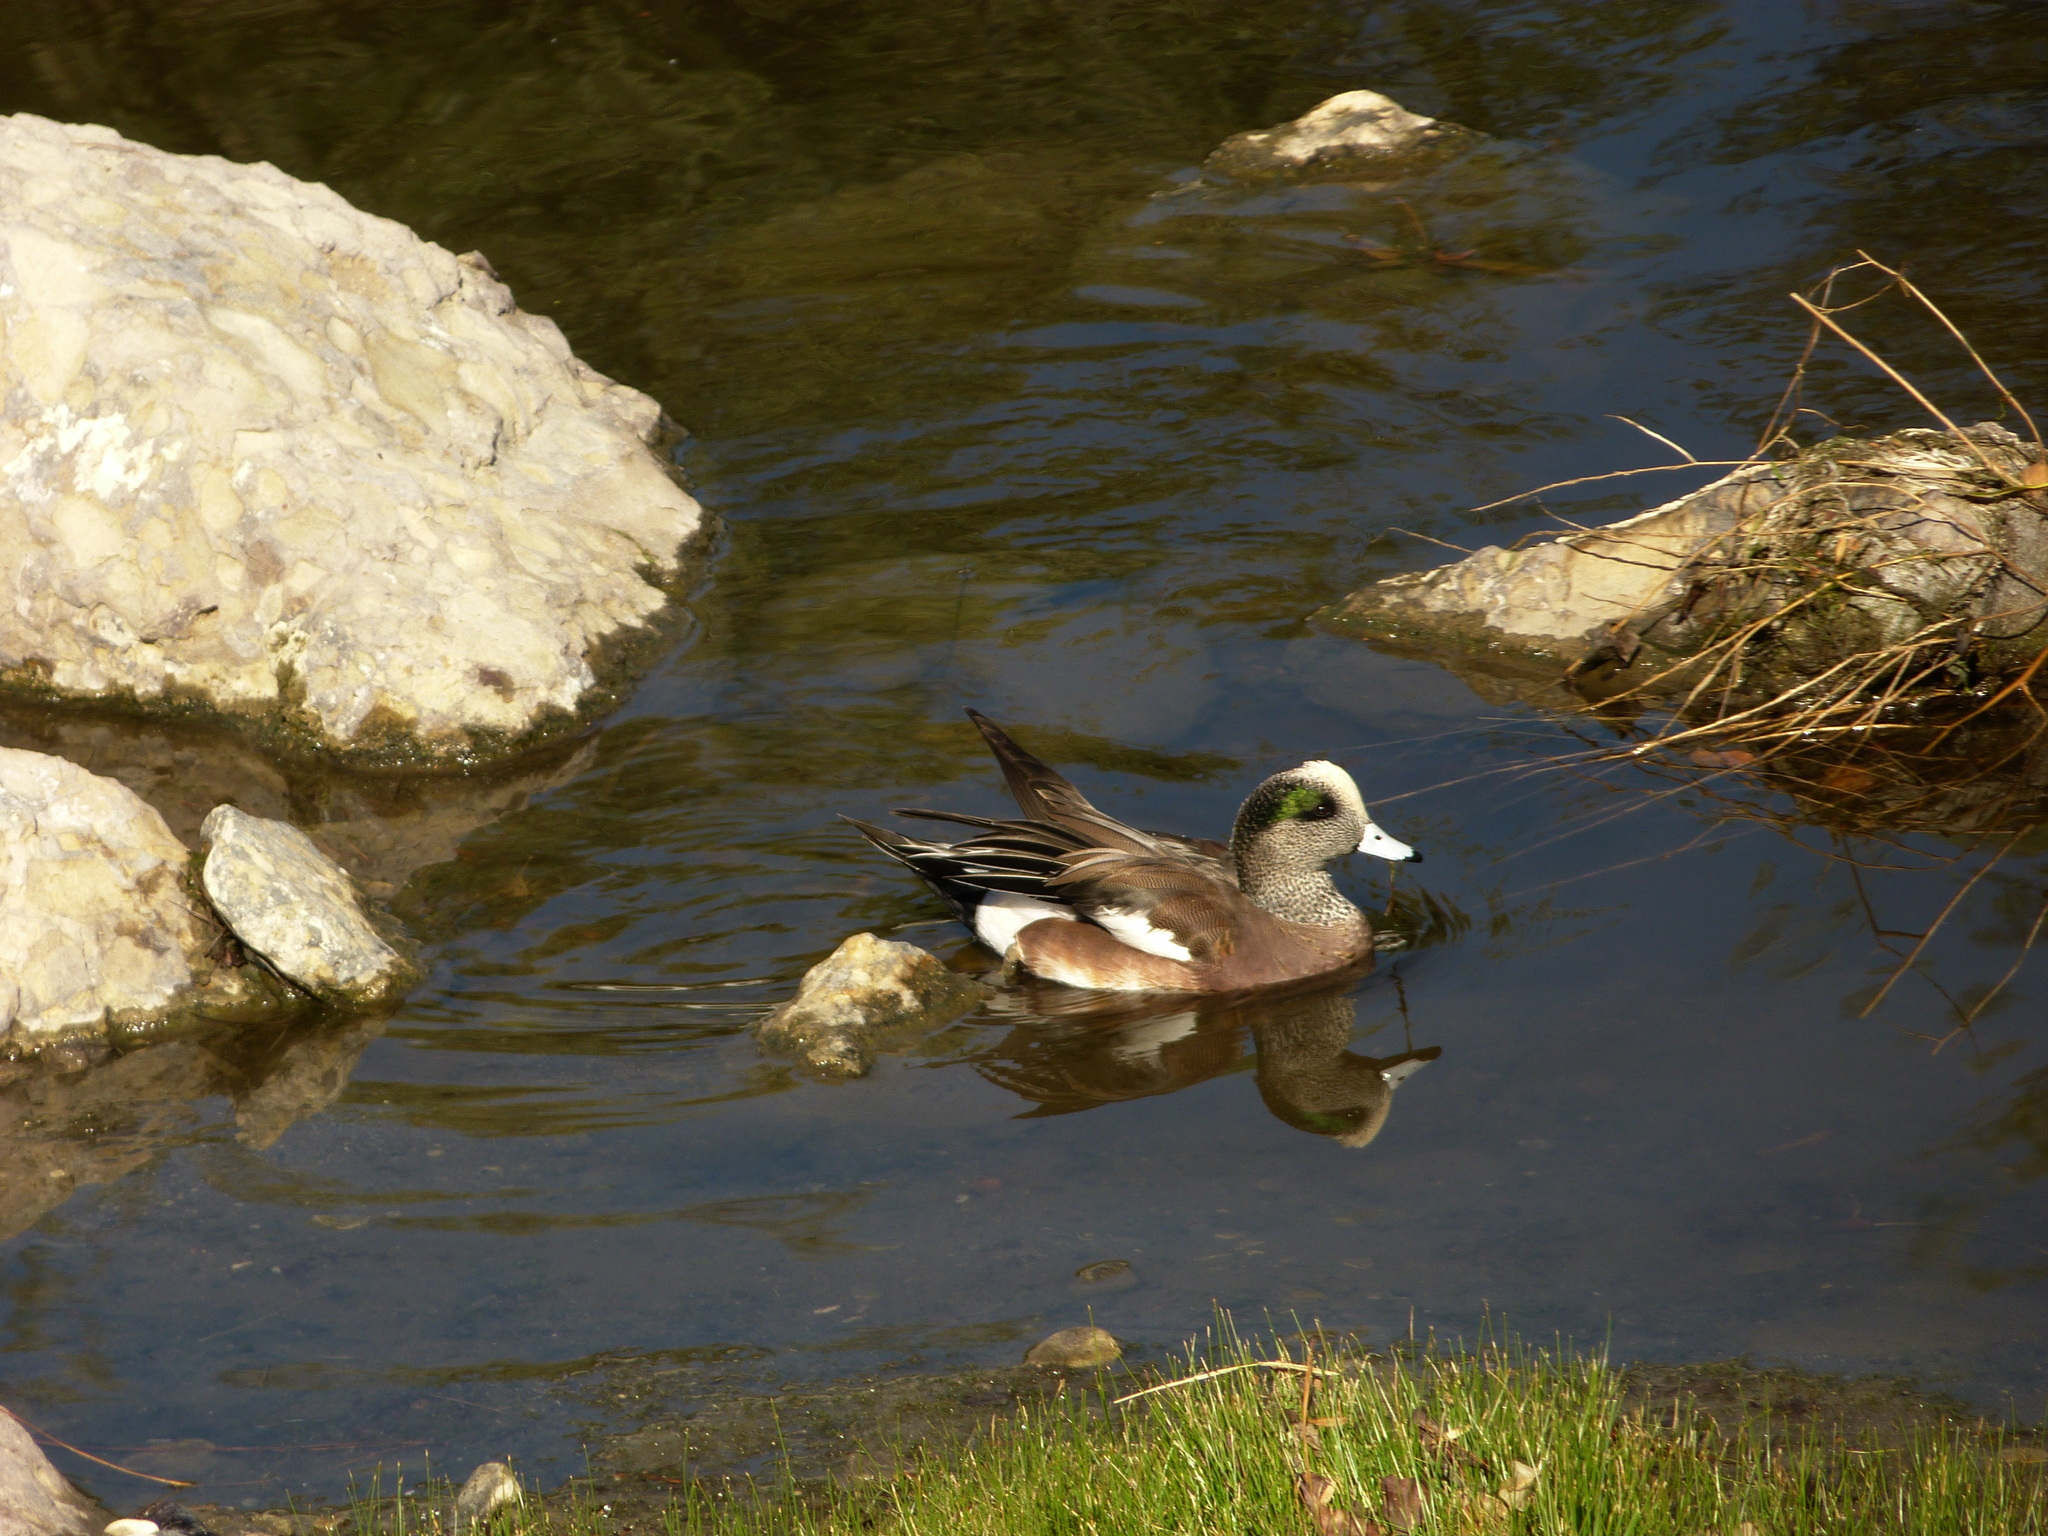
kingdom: Animalia
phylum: Chordata
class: Aves
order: Anseriformes
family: Anatidae
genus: Mareca
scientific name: Mareca americana
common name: American wigeon
